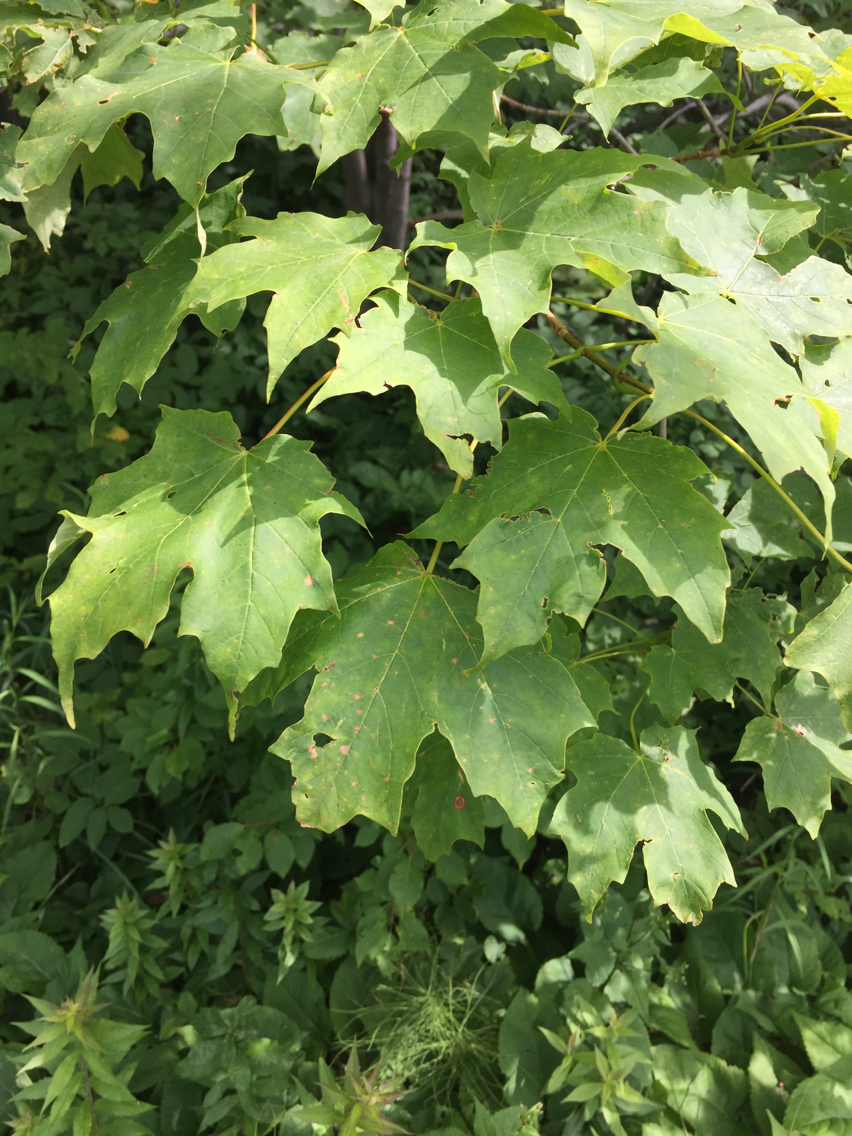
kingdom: Plantae
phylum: Tracheophyta
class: Magnoliopsida
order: Sapindales
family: Sapindaceae
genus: Acer
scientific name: Acer saccharum
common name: Sugar maple
